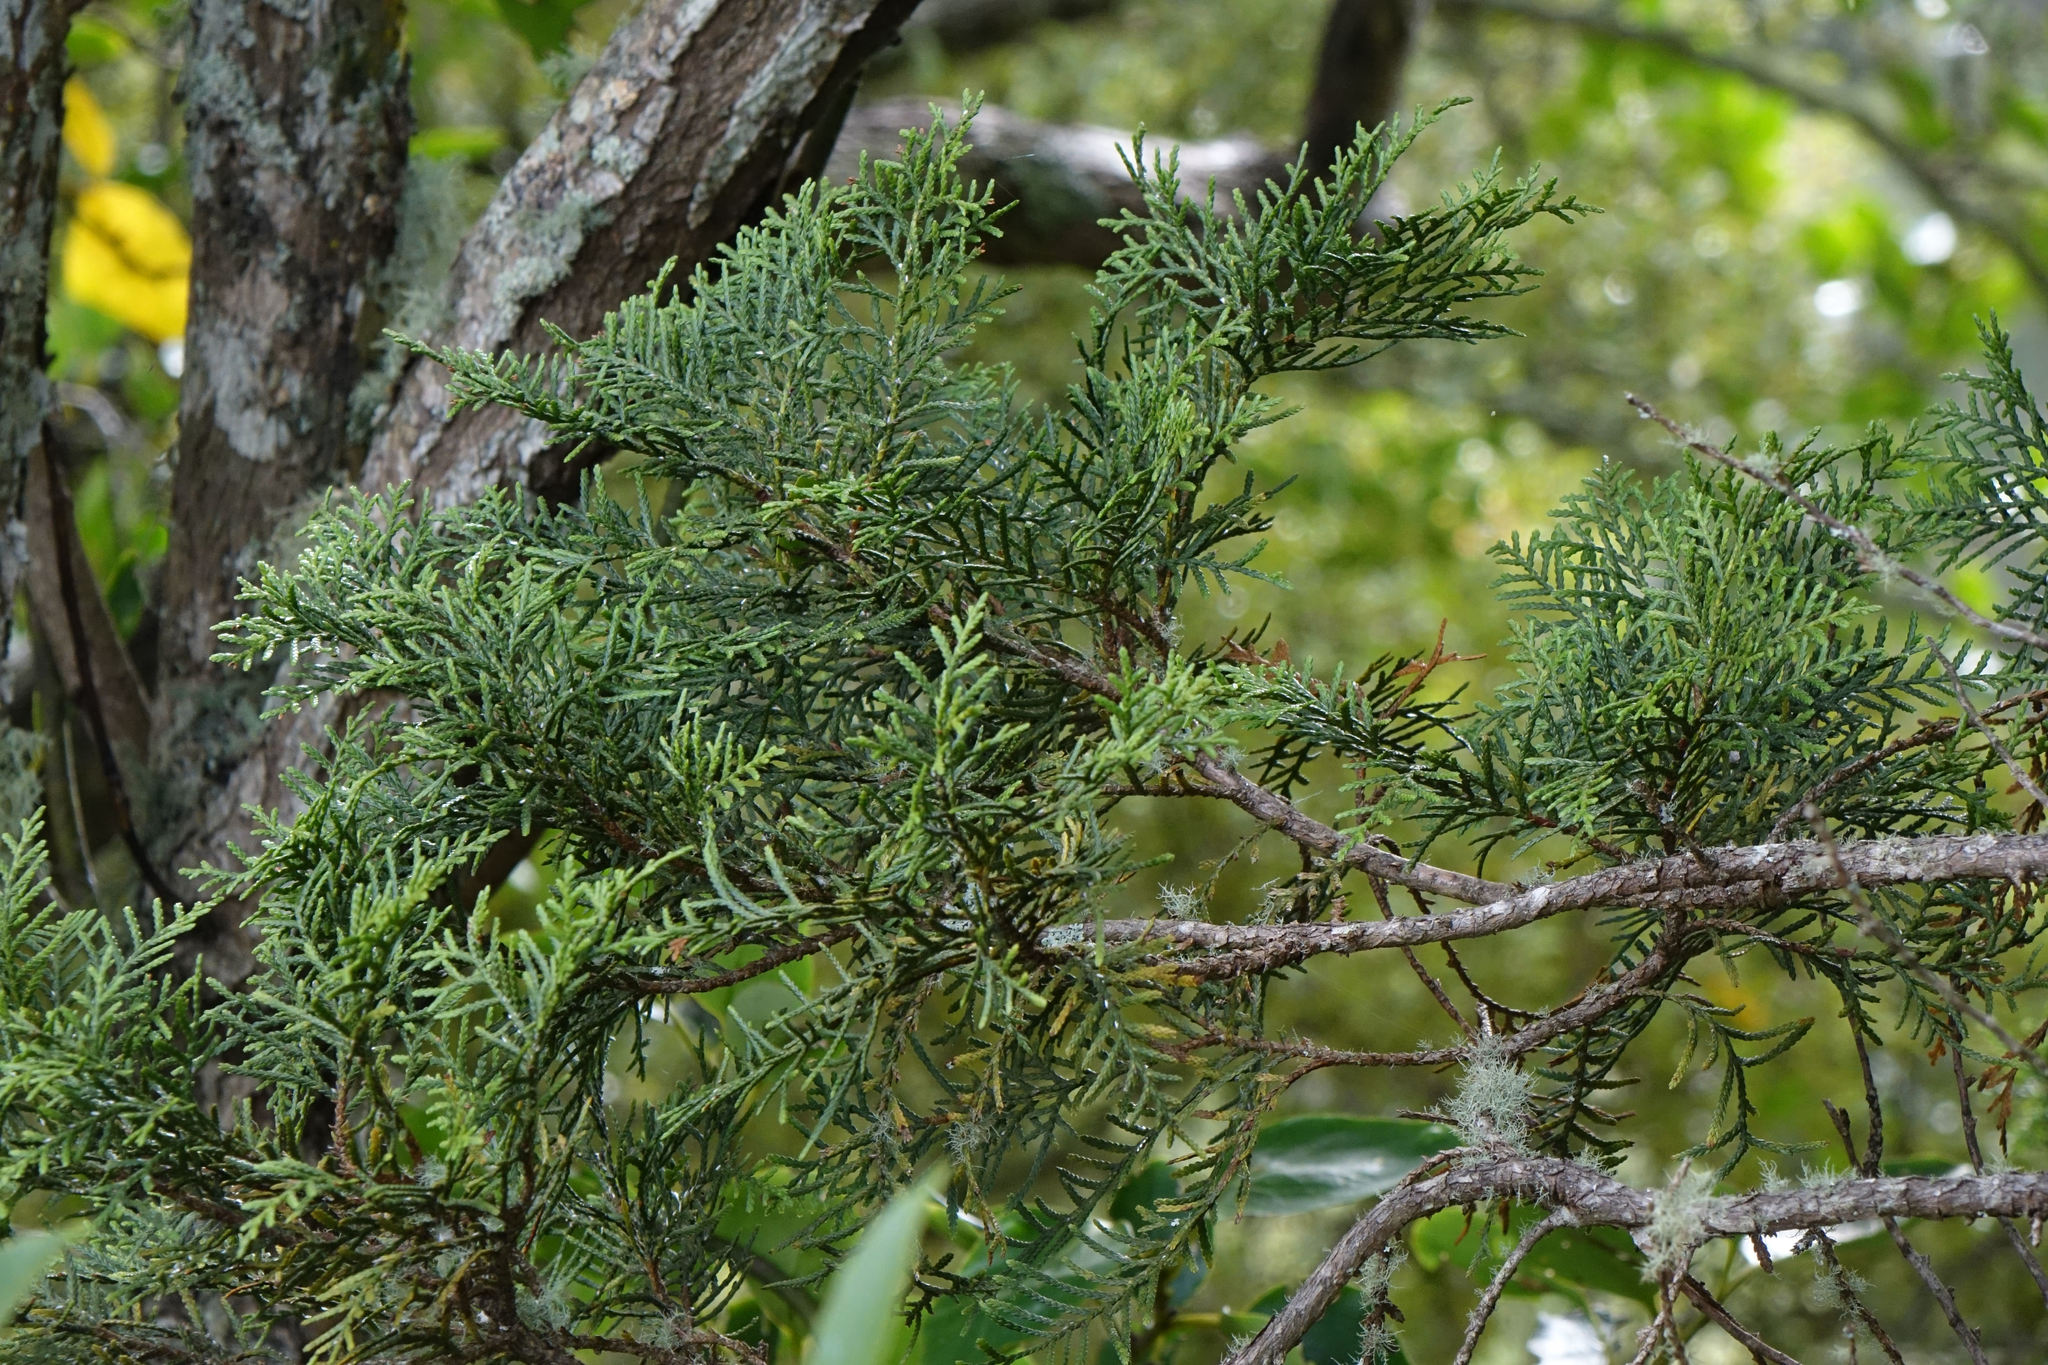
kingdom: Plantae
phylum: Tracheophyta
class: Pinopsida
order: Pinales
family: Cupressaceae
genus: Libocedrus
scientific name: Libocedrus bidwillii
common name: Cedar
